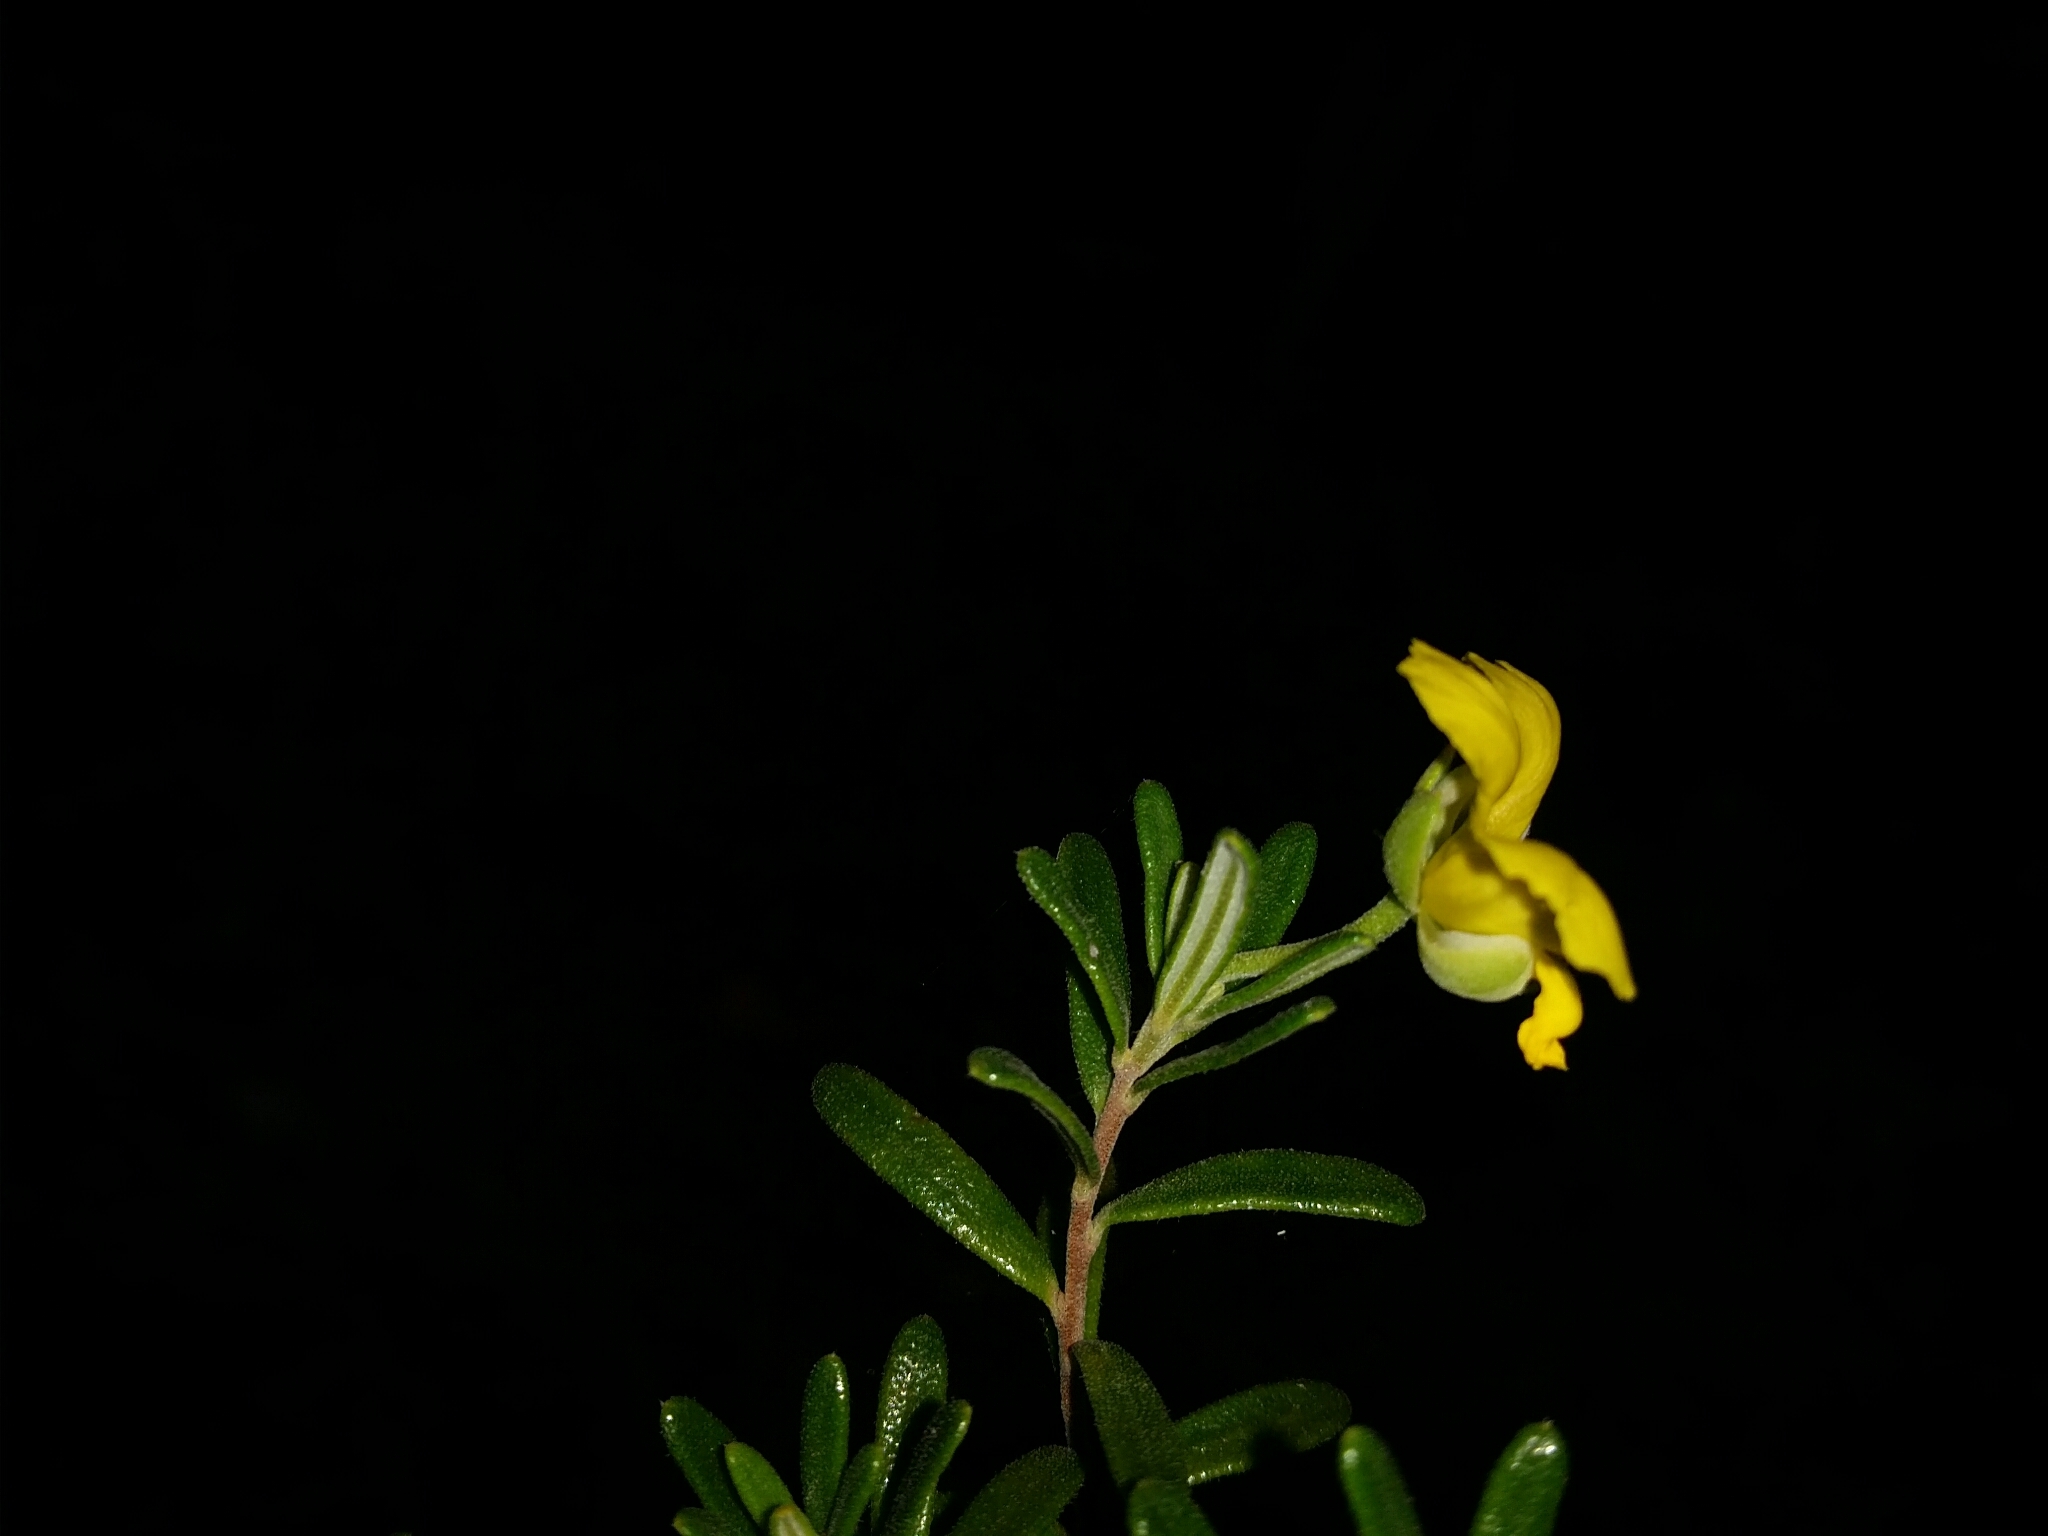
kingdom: Plantae
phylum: Tracheophyta
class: Magnoliopsida
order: Dilleniales
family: Dilleniaceae
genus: Hibbertia
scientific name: Hibbertia hypericoides
